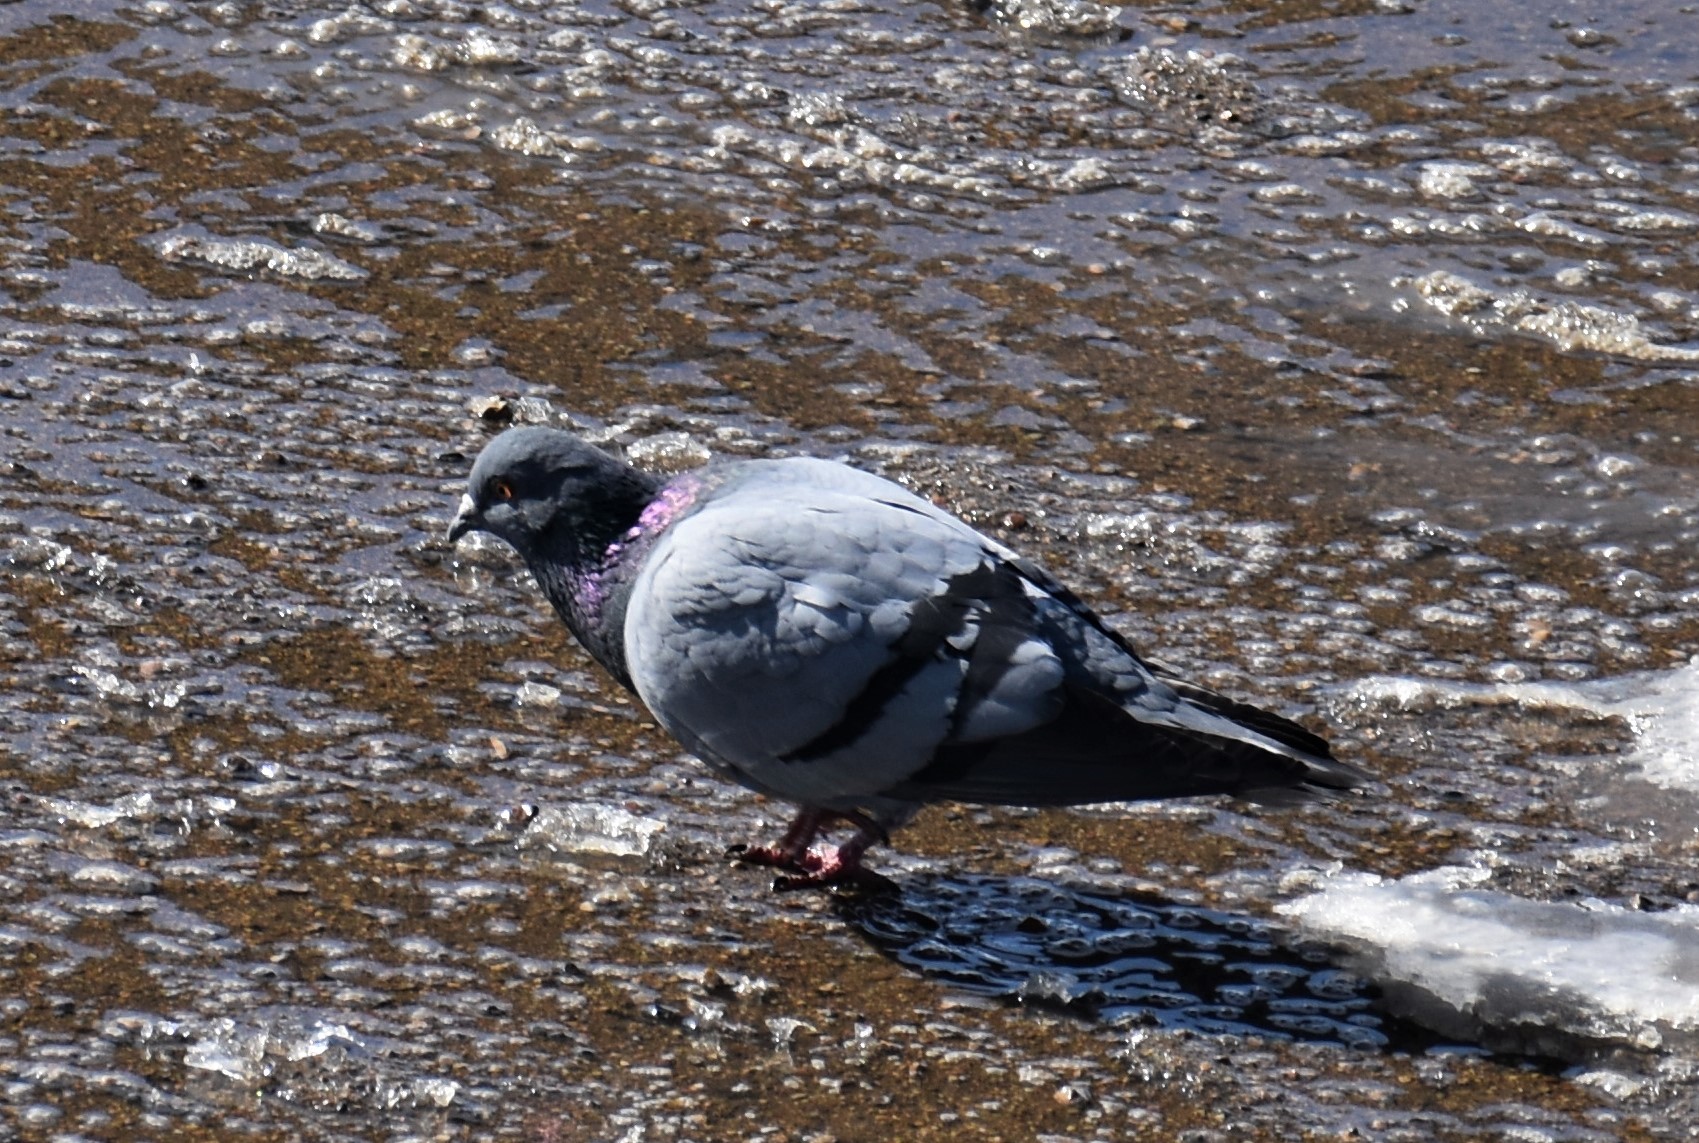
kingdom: Animalia
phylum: Chordata
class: Aves
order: Columbiformes
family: Columbidae
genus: Columba
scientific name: Columba livia
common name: Rock pigeon
